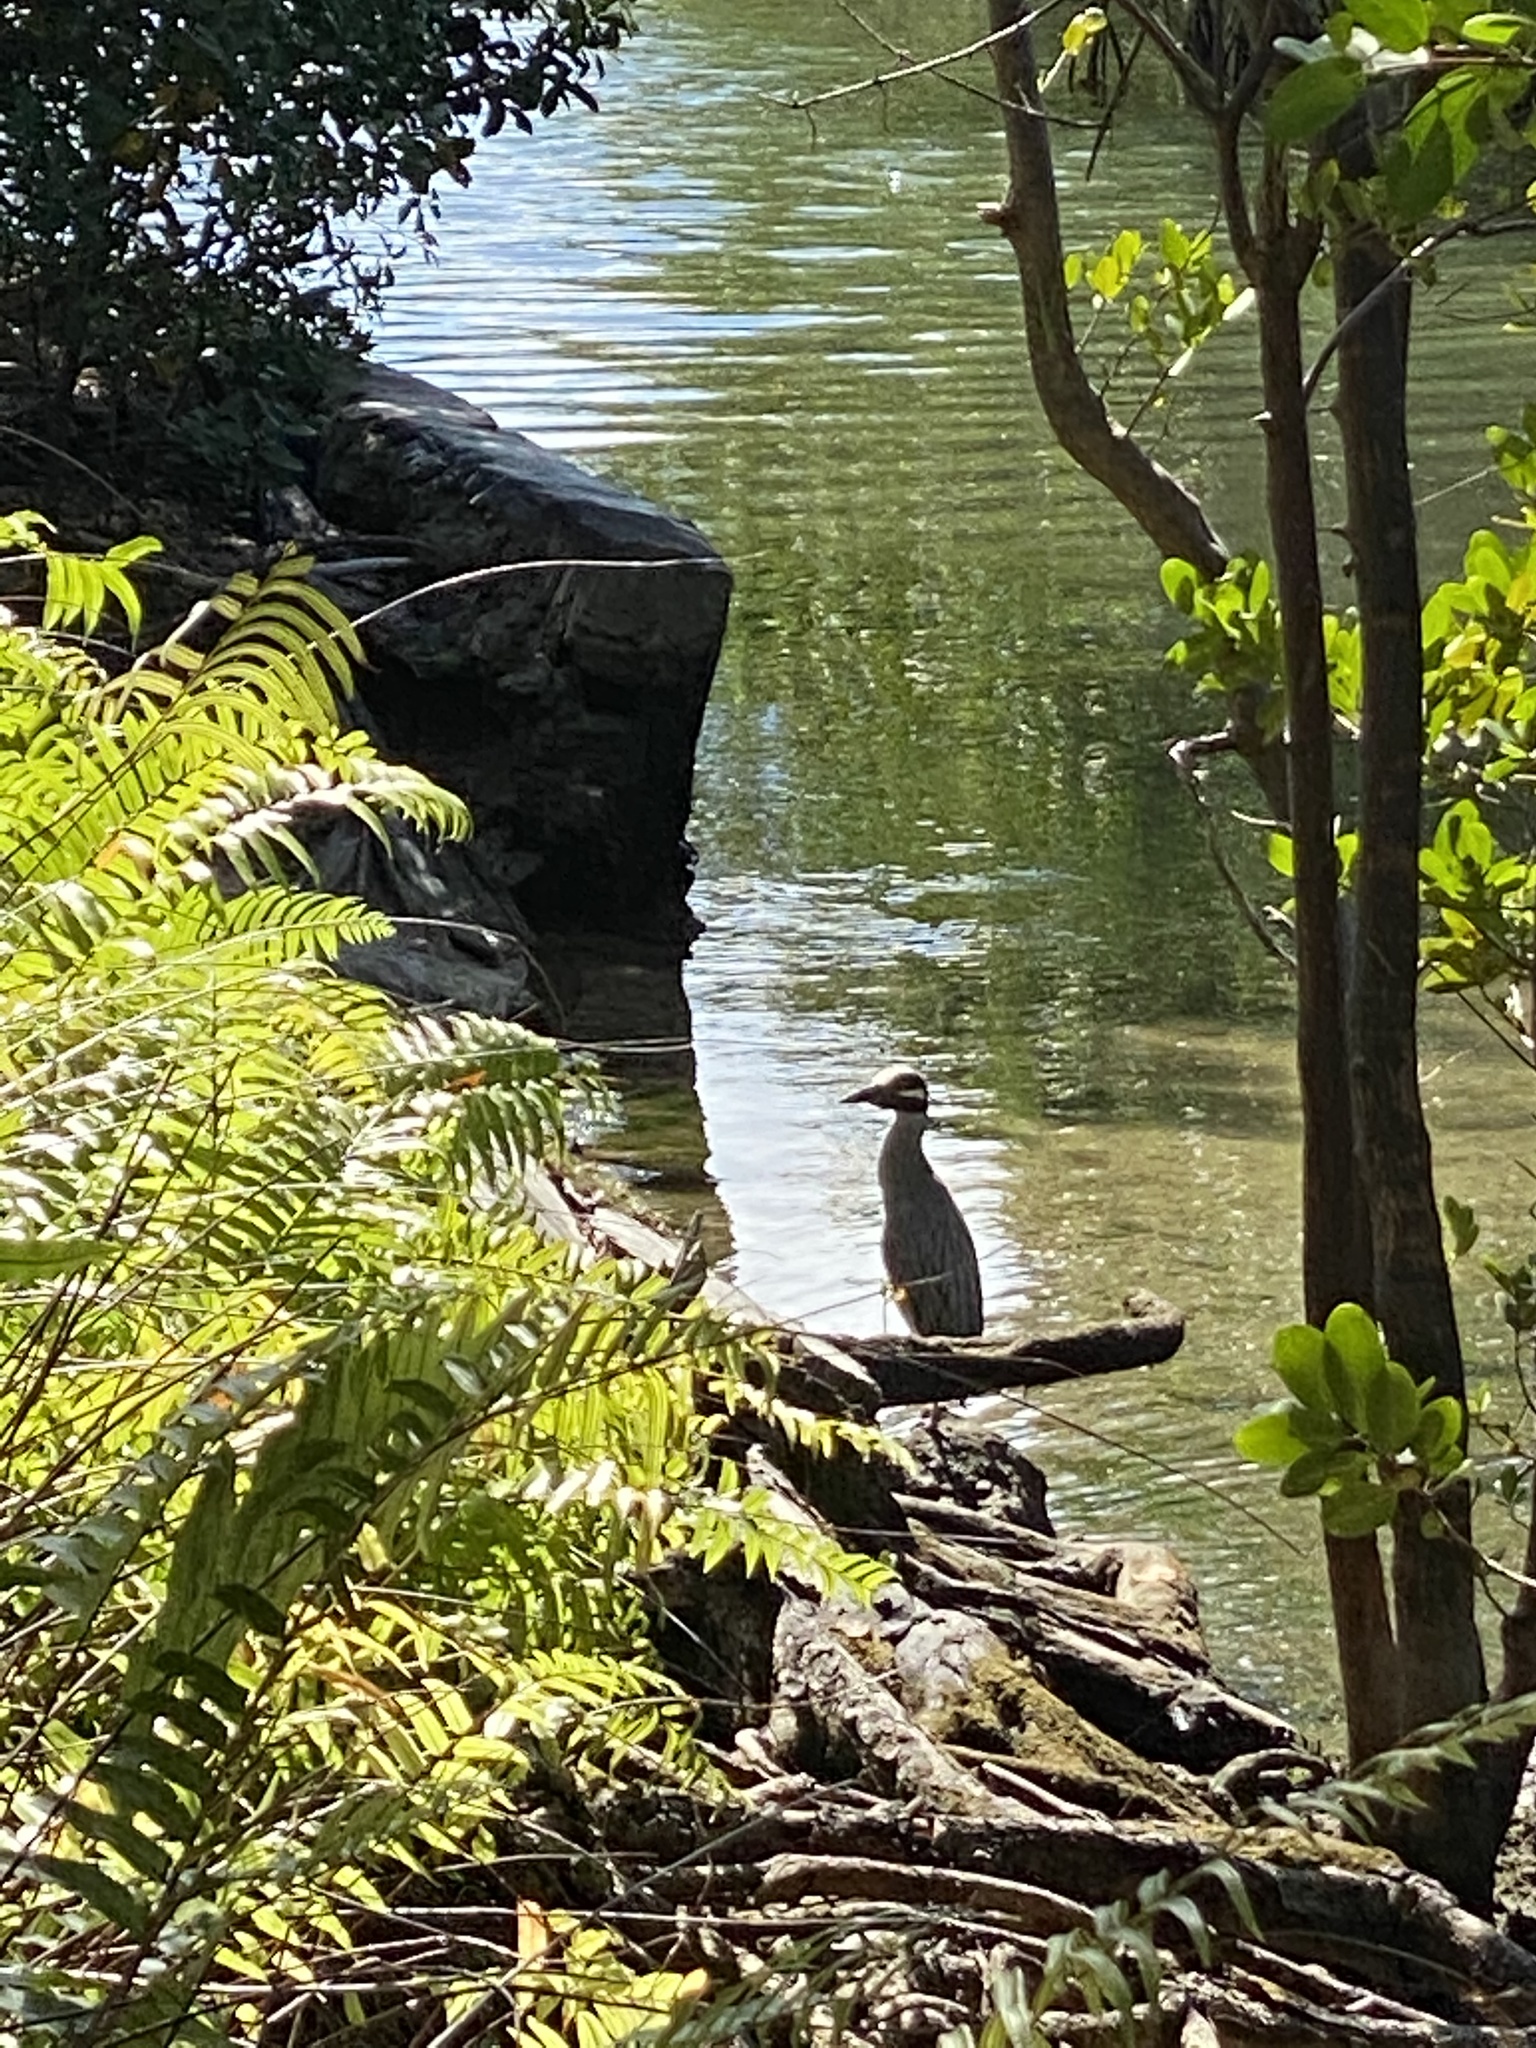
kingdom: Animalia
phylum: Chordata
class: Aves
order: Pelecaniformes
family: Ardeidae
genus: Nyctanassa
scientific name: Nyctanassa violacea
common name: Yellow-crowned night heron
